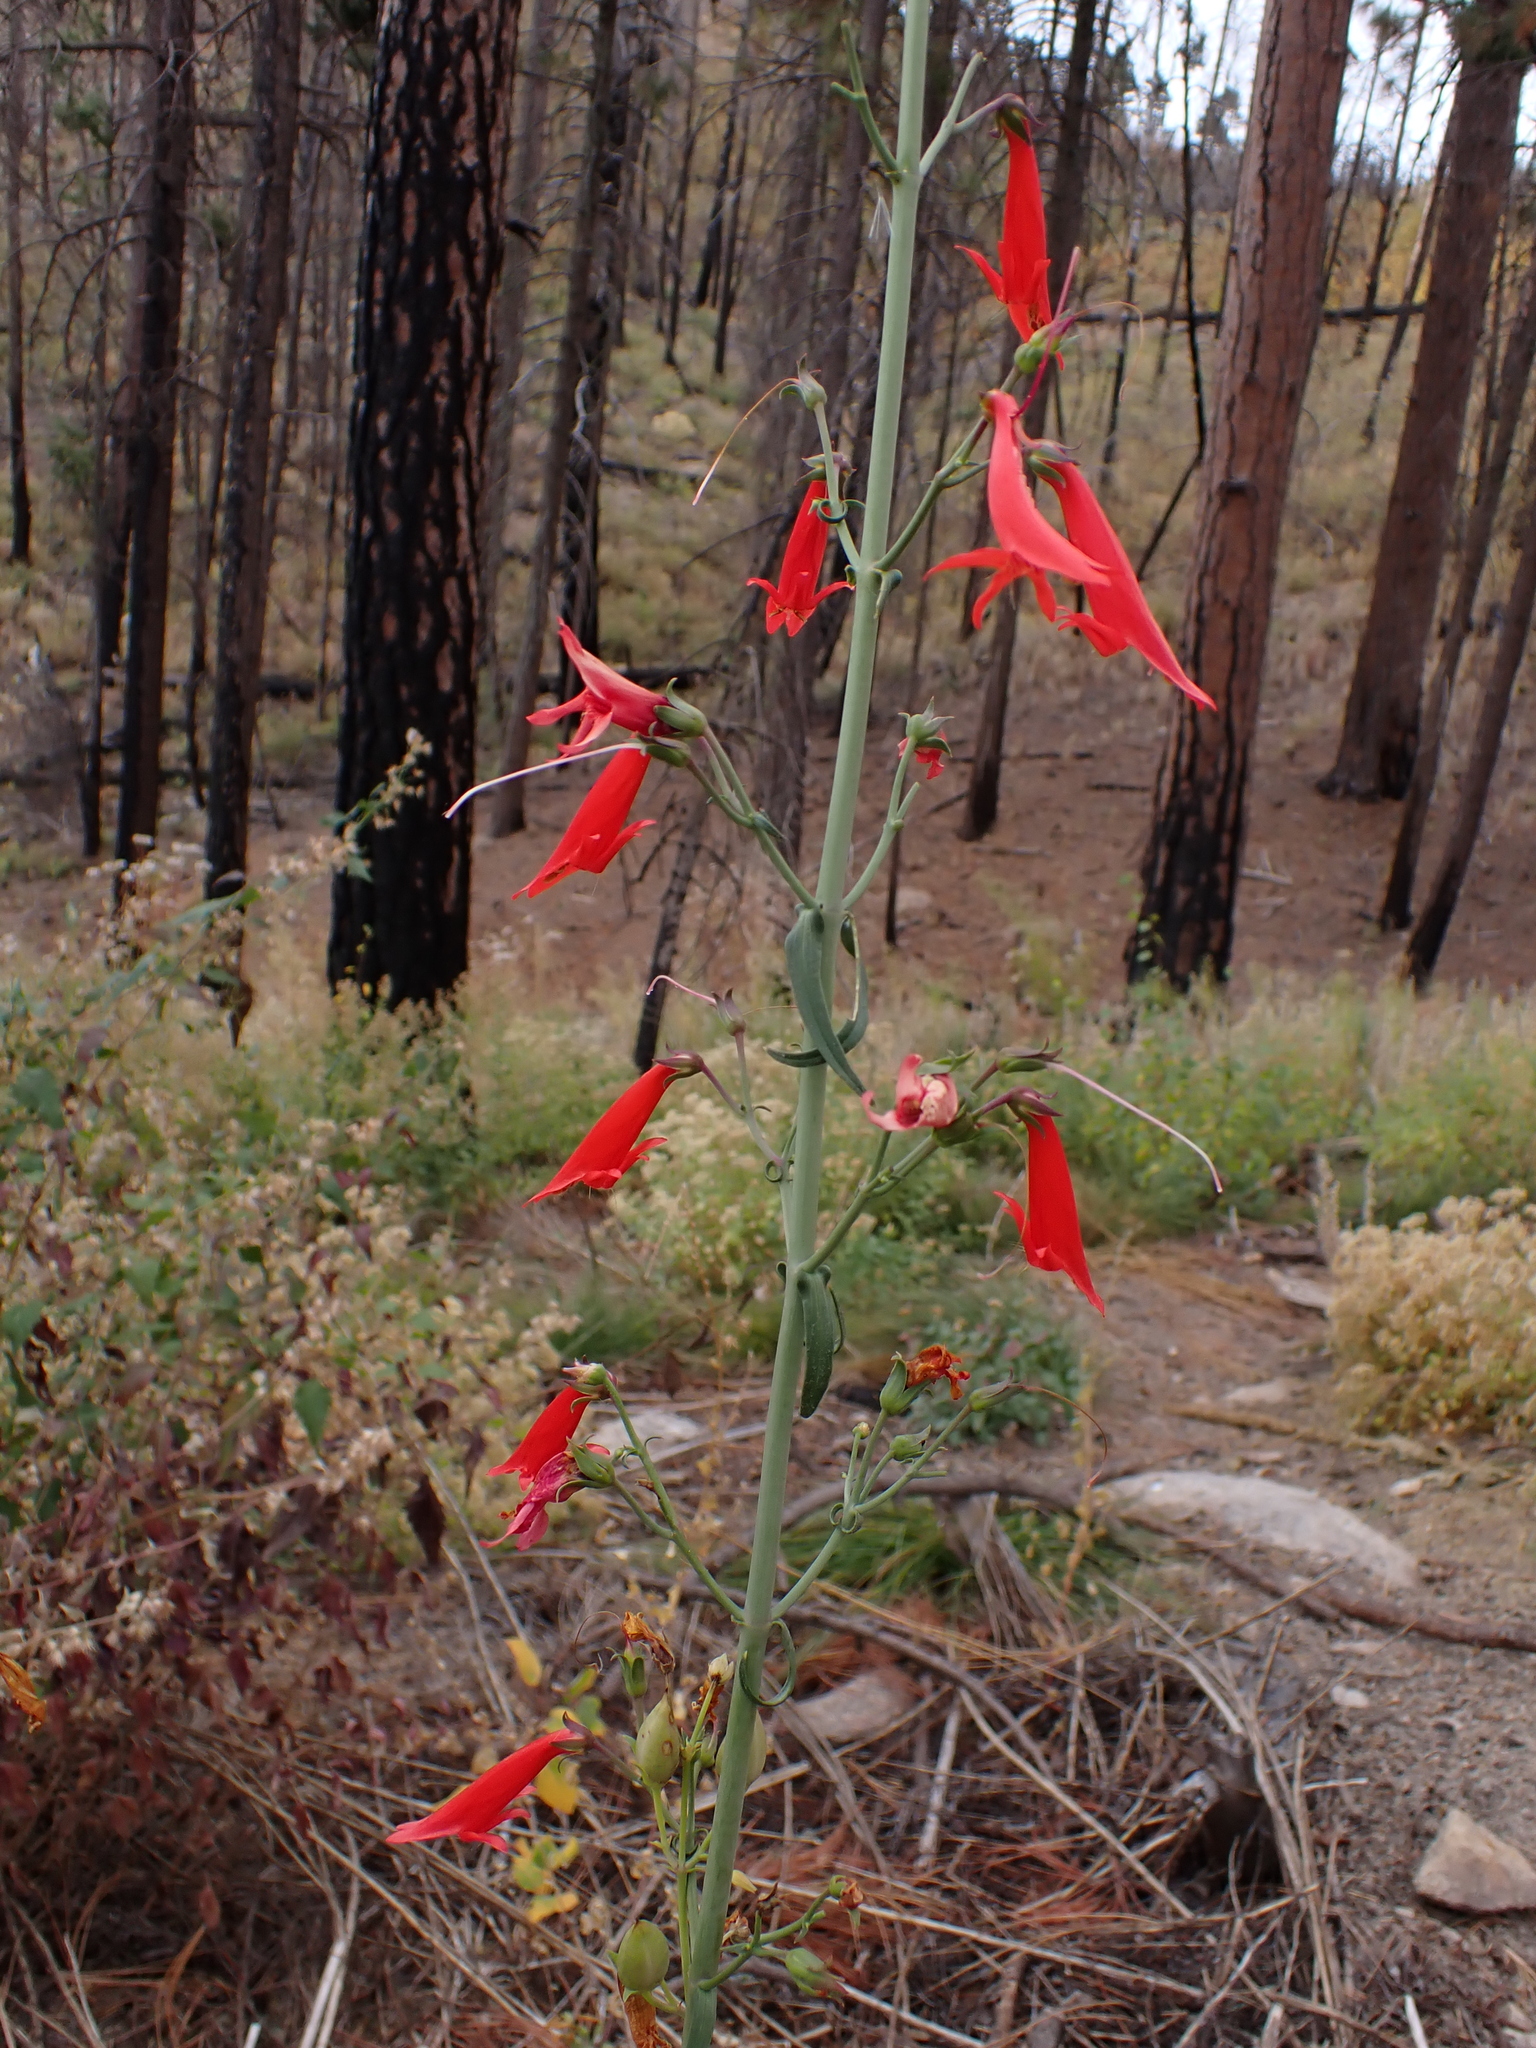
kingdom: Plantae
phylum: Tracheophyta
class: Magnoliopsida
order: Lamiales
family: Plantaginaceae
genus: Penstemon
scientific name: Penstemon barbatus
